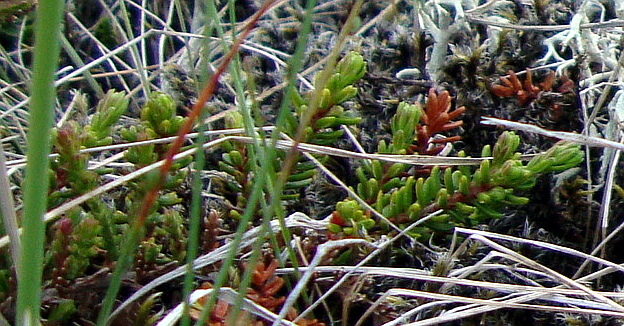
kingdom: Plantae
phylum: Tracheophyta
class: Magnoliopsida
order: Ericales
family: Ericaceae
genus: Empetrum
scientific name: Empetrum nigrum
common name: Black crowberry
